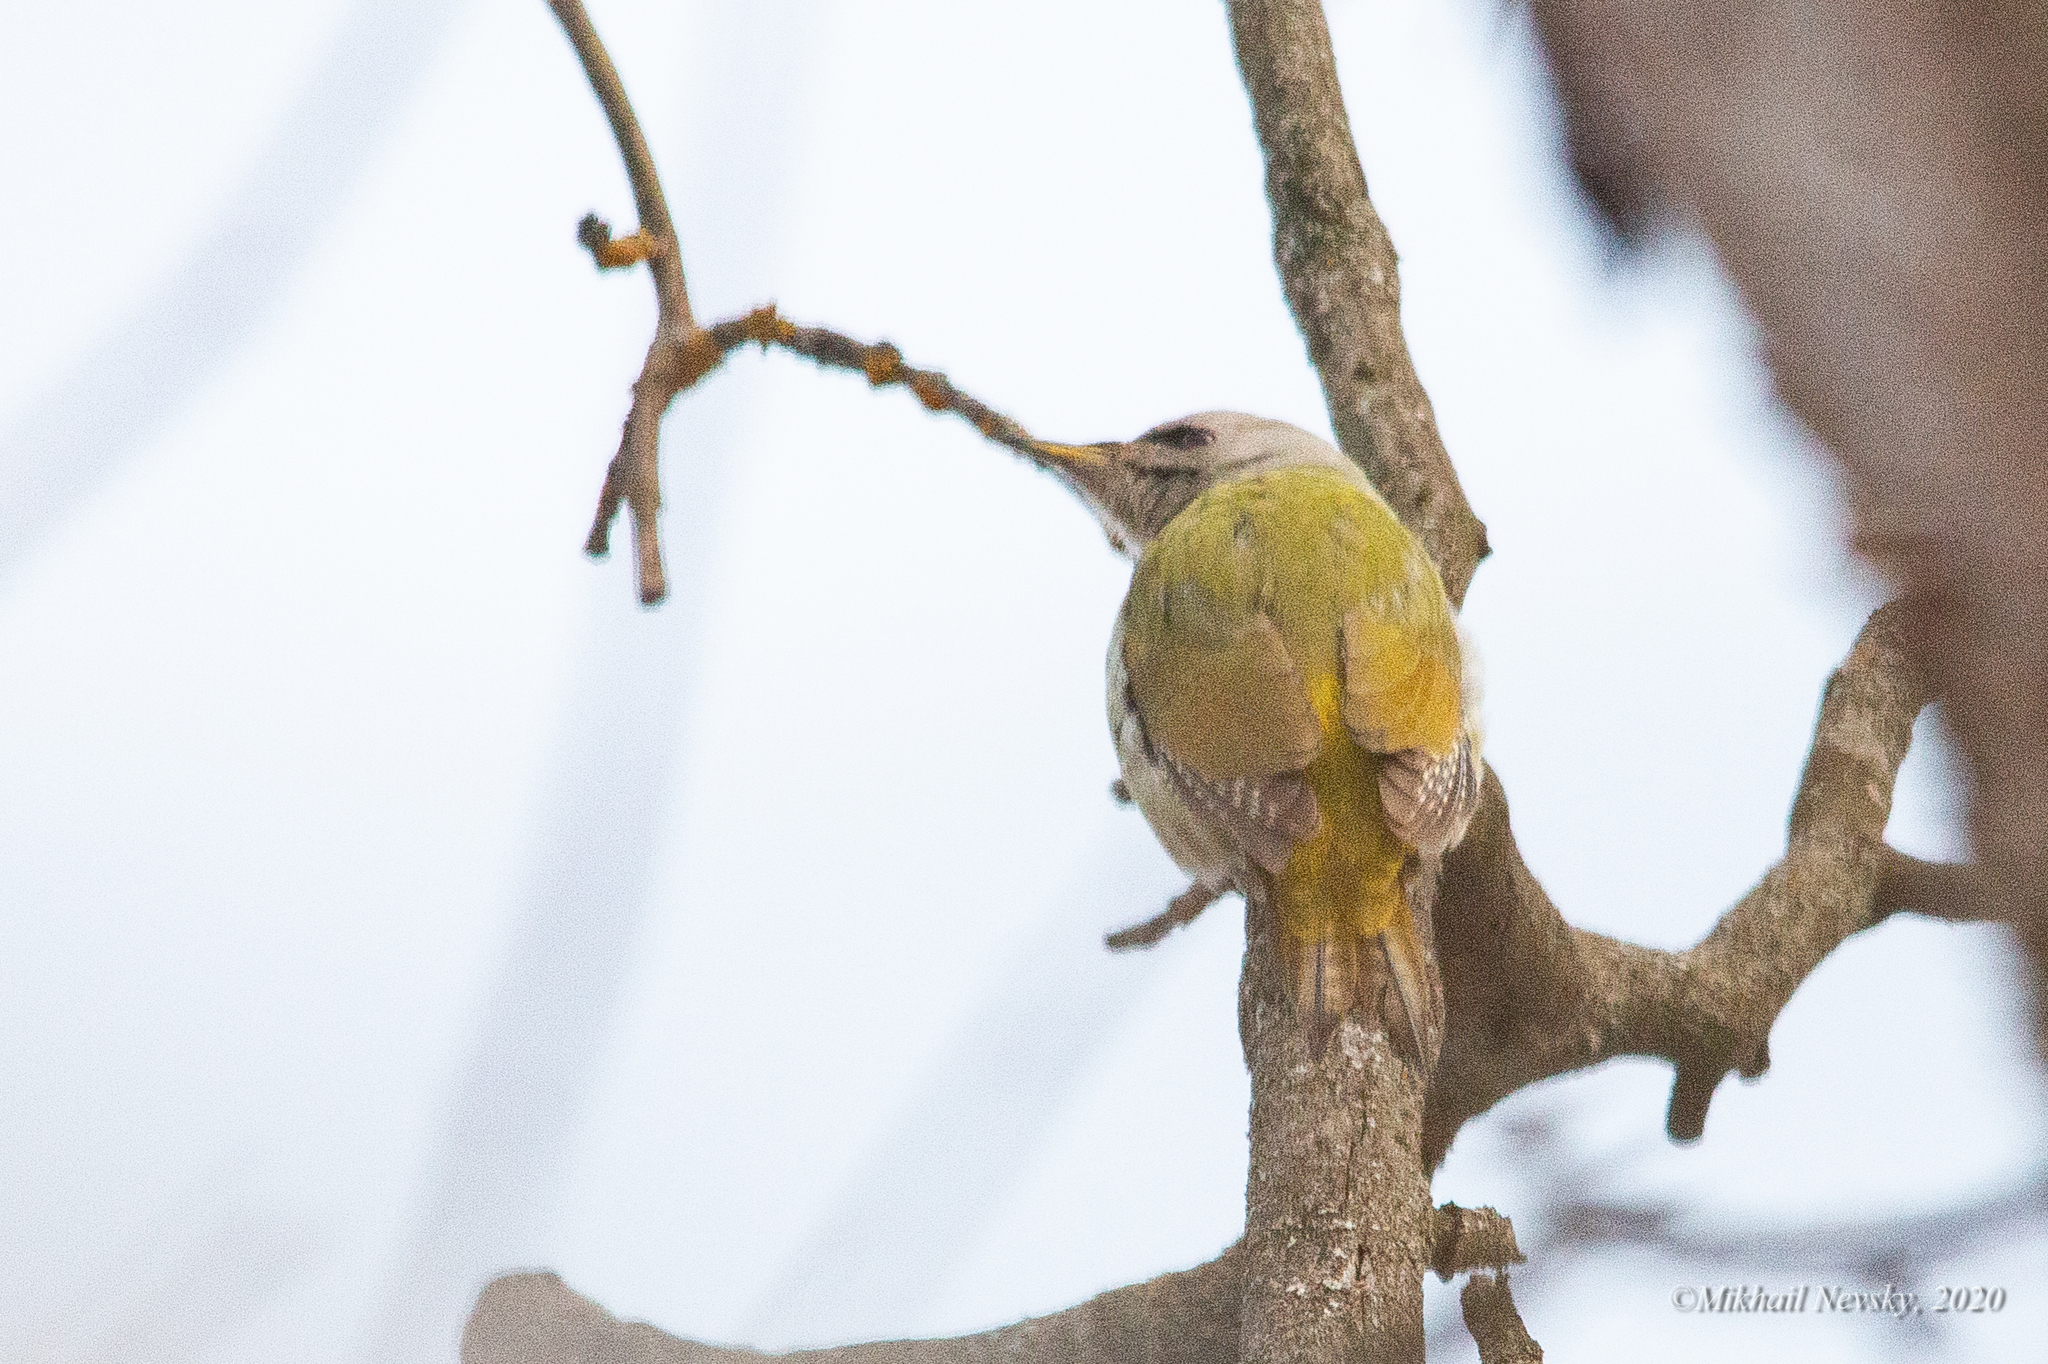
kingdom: Animalia
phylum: Chordata
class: Aves
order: Piciformes
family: Picidae
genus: Picus
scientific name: Picus canus
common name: Grey-headed woodpecker
